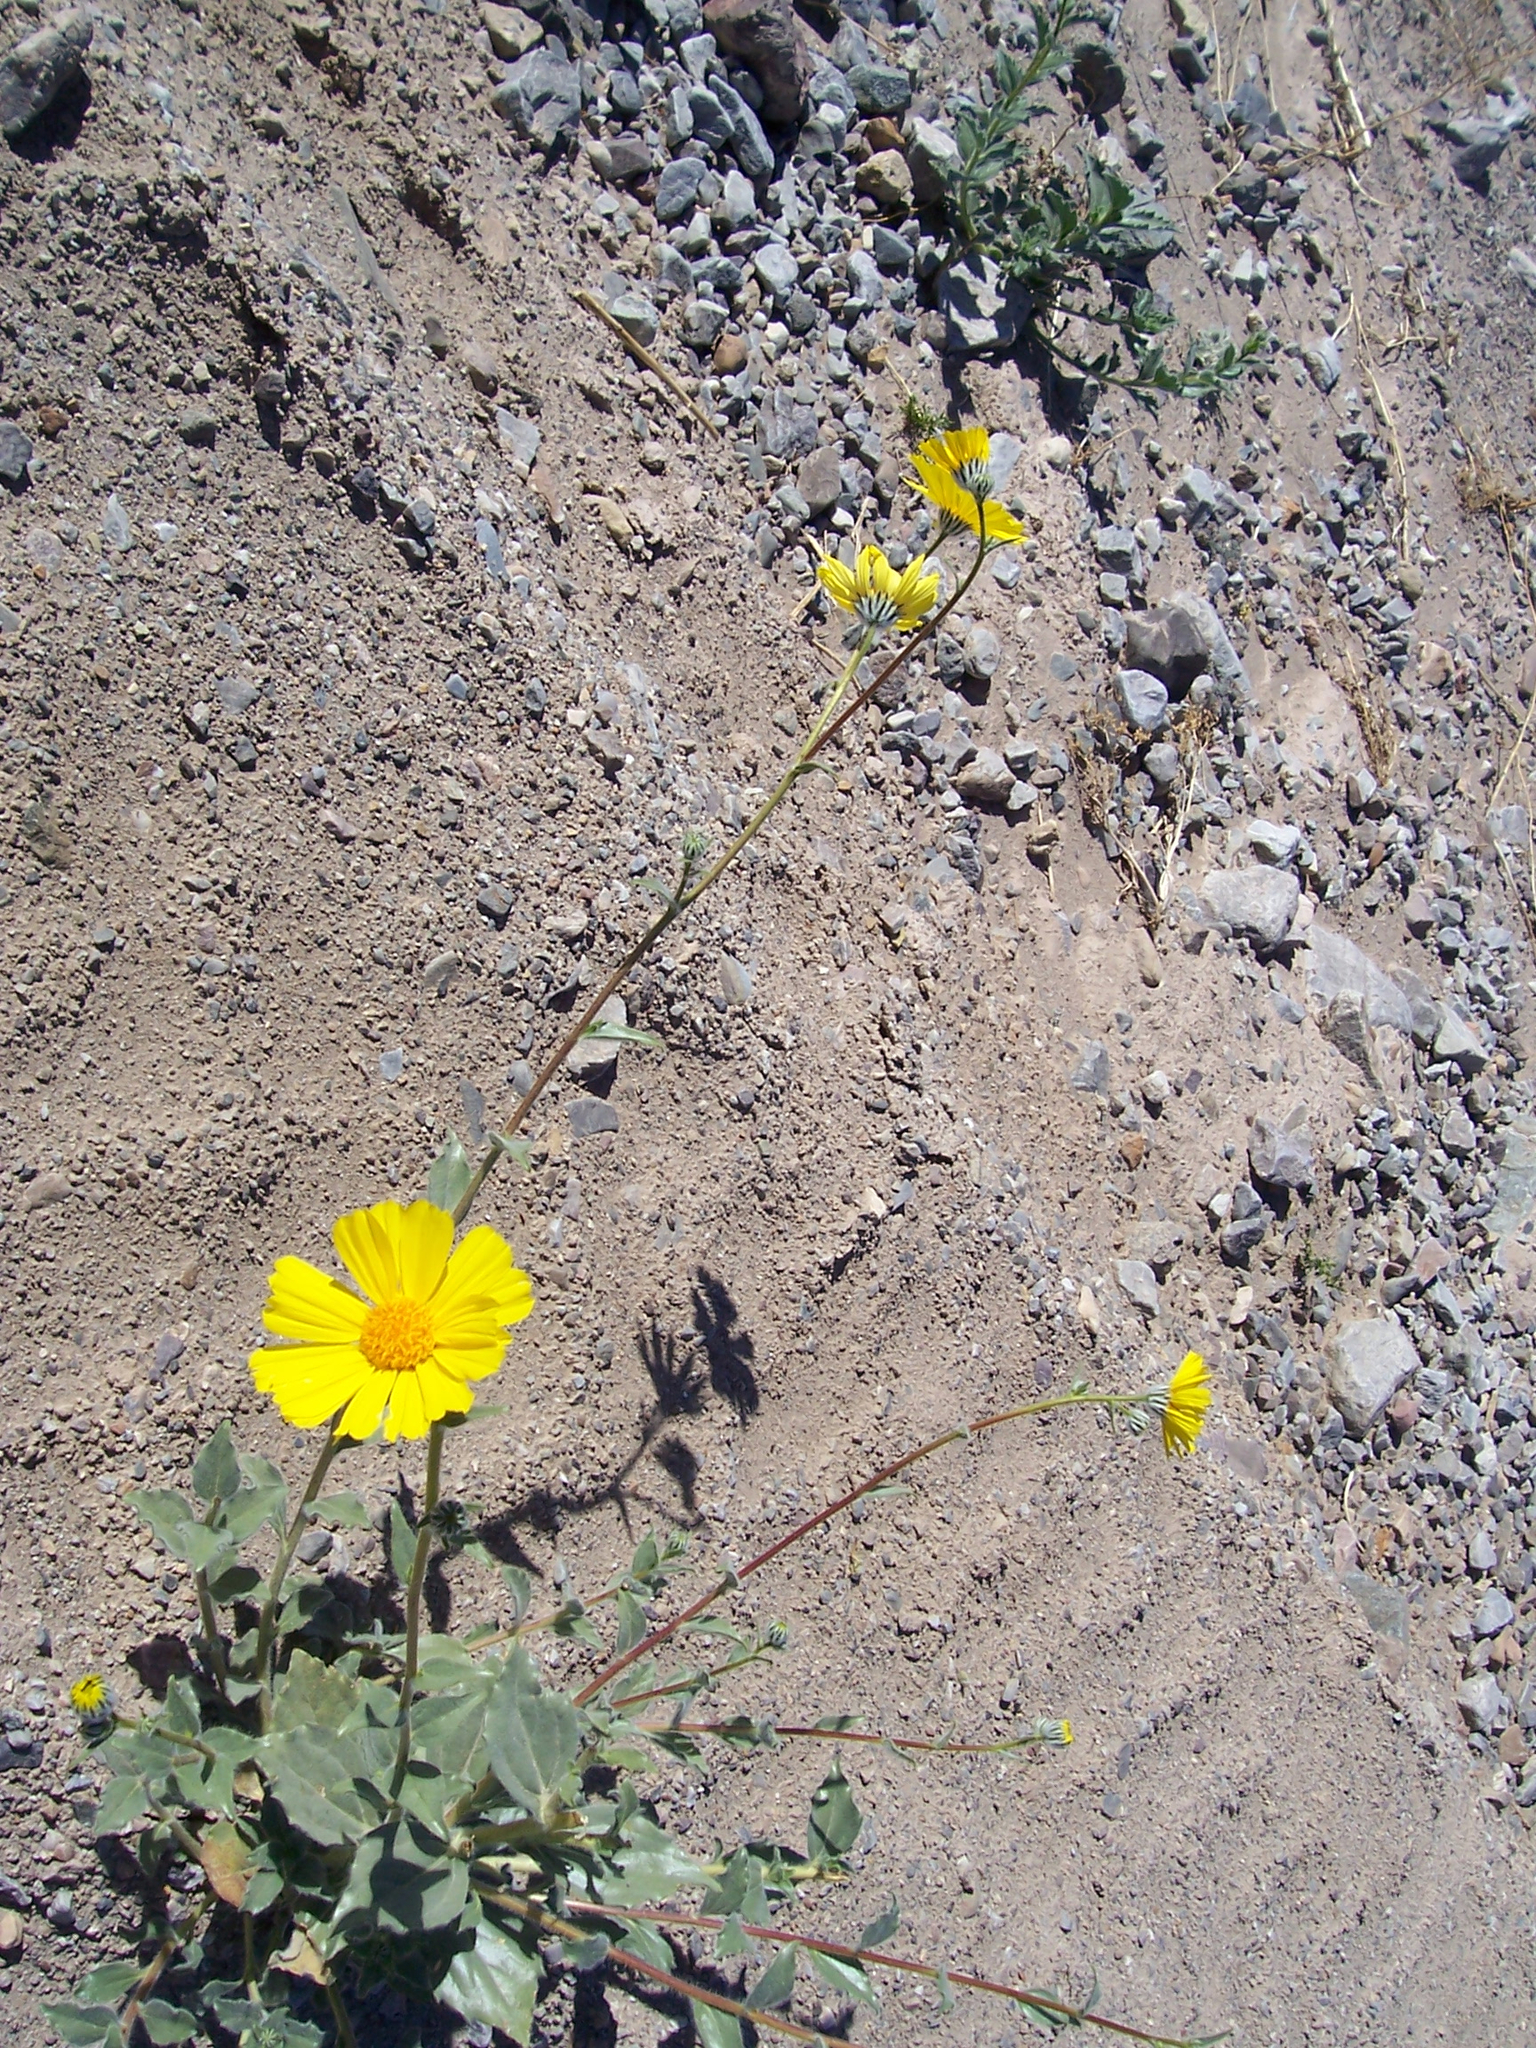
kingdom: Plantae
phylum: Tracheophyta
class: Magnoliopsida
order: Asterales
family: Asteraceae
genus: Geraea
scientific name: Geraea canescens
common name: Desert-gold
